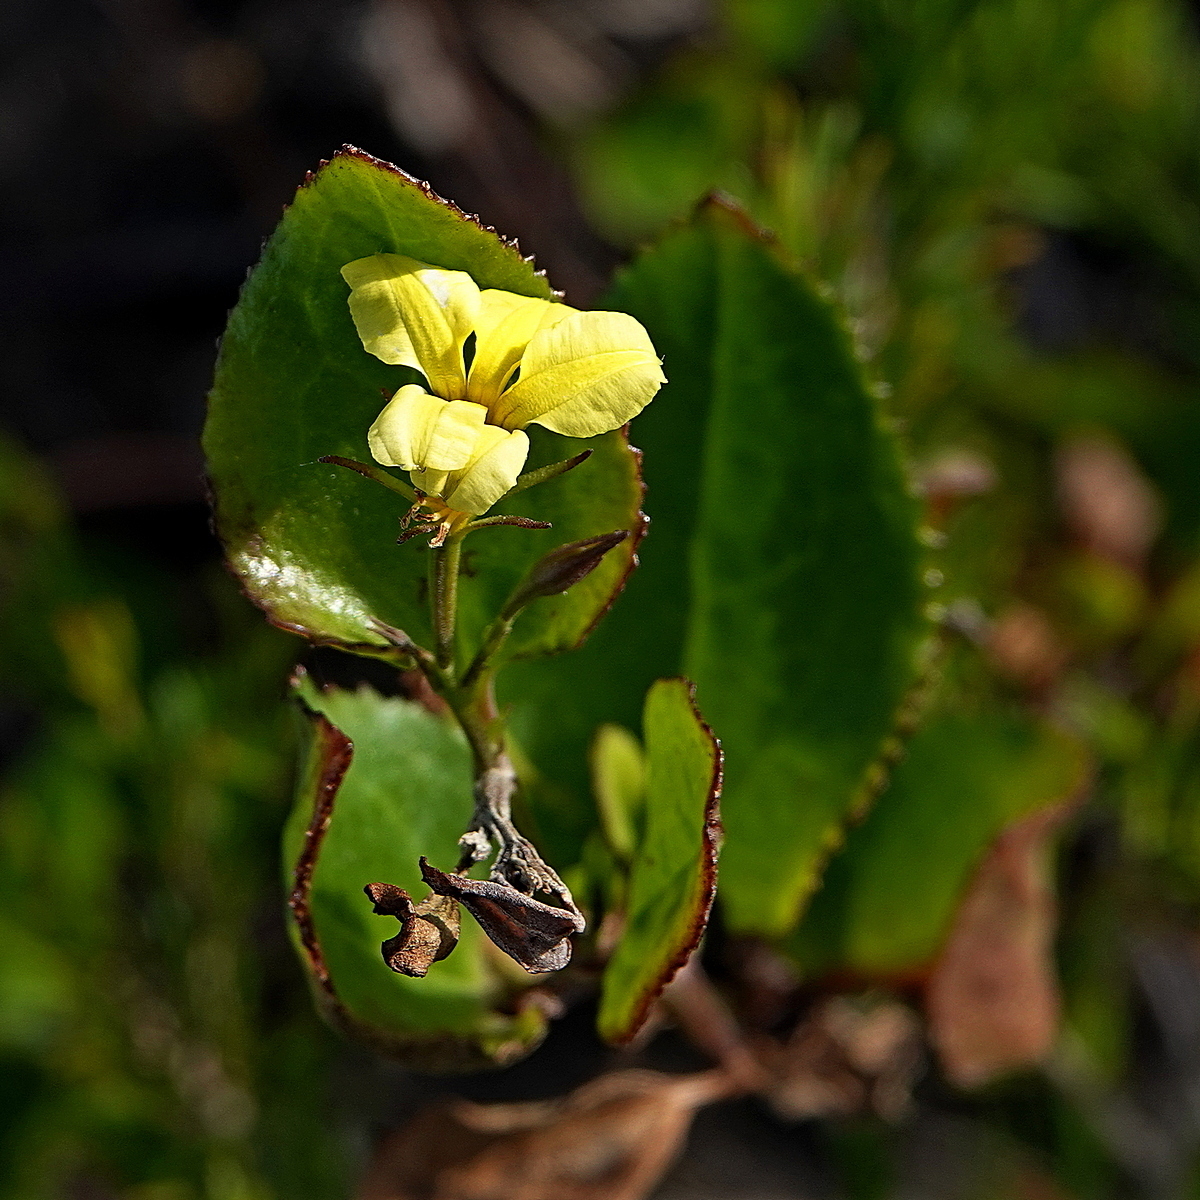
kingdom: Plantae
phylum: Tracheophyta
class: Magnoliopsida
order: Asterales
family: Goodeniaceae
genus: Goodenia
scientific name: Goodenia ovata
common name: Hop goodenia
